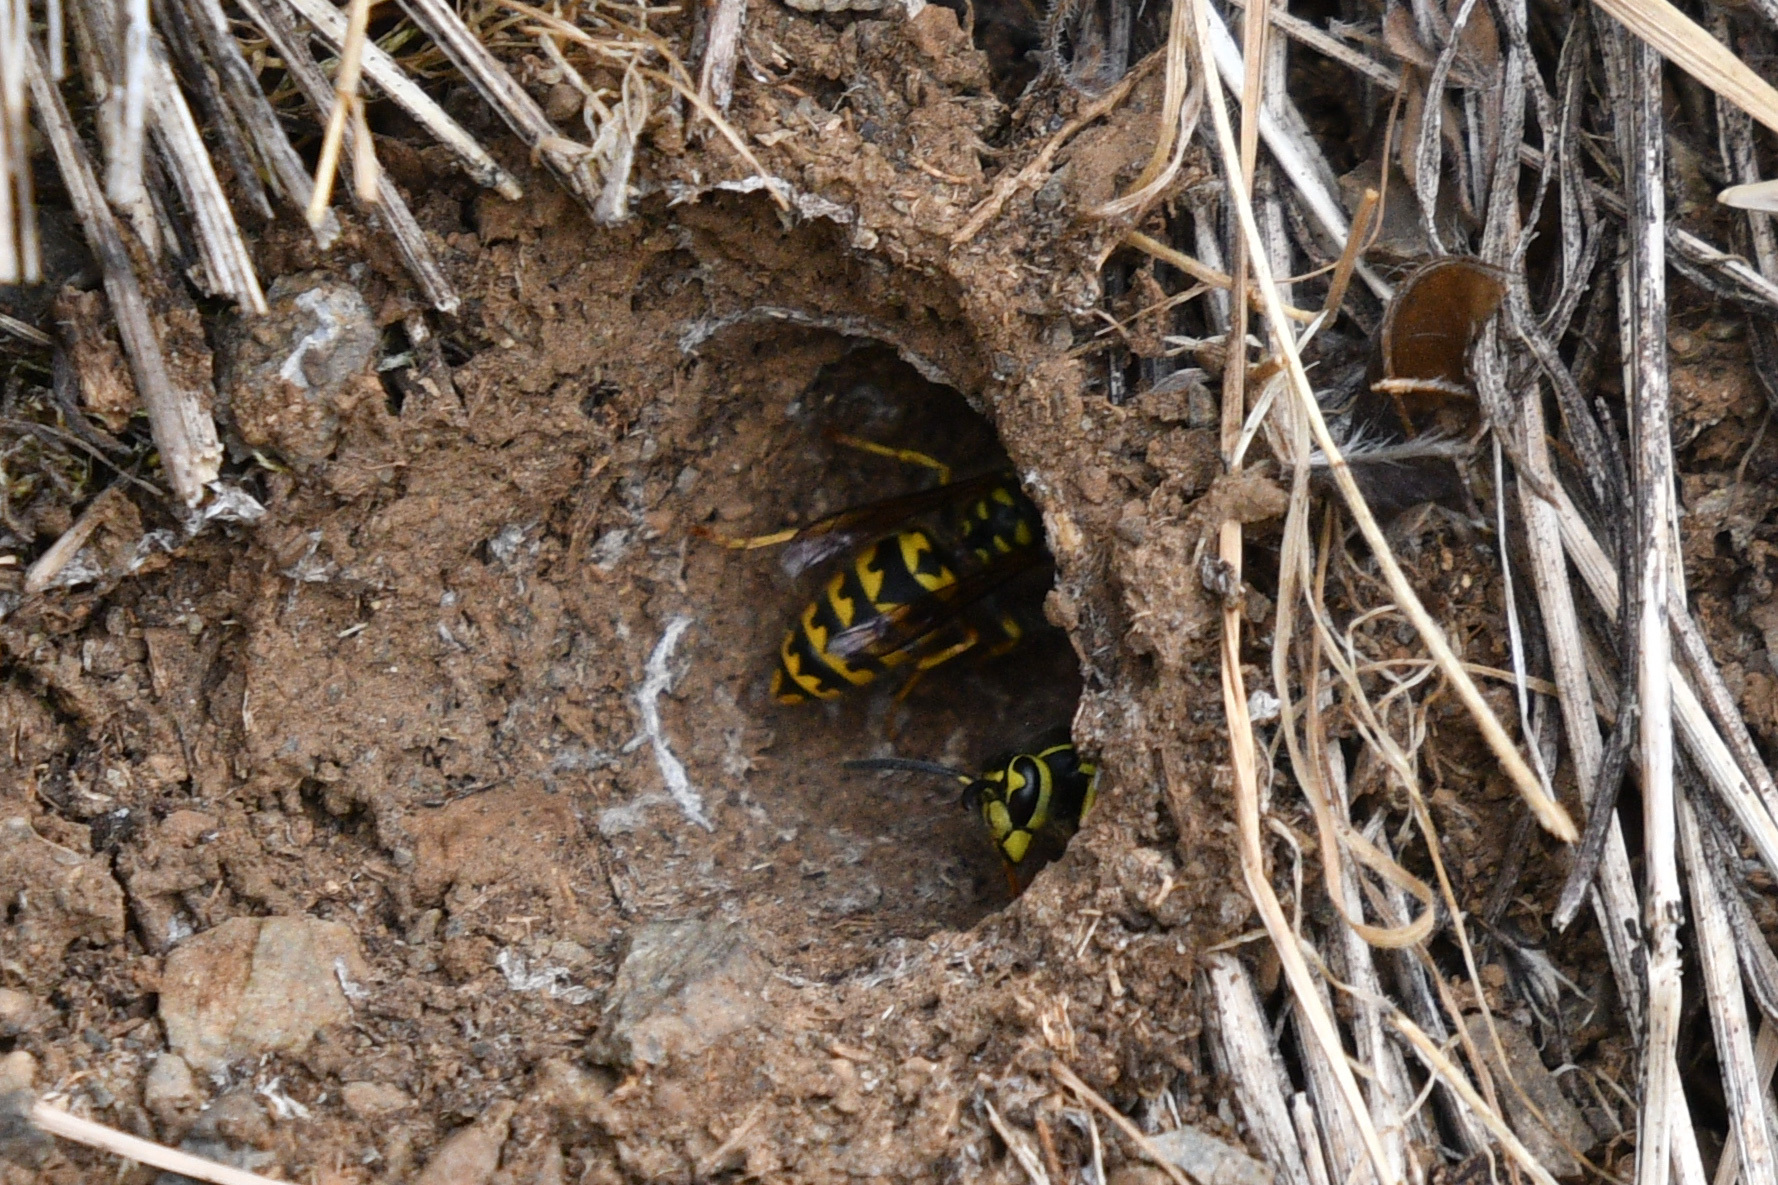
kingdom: Animalia
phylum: Arthropoda
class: Insecta
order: Hymenoptera
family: Vespidae
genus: Vespula
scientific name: Vespula pensylvanica
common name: Western yellowjacket
